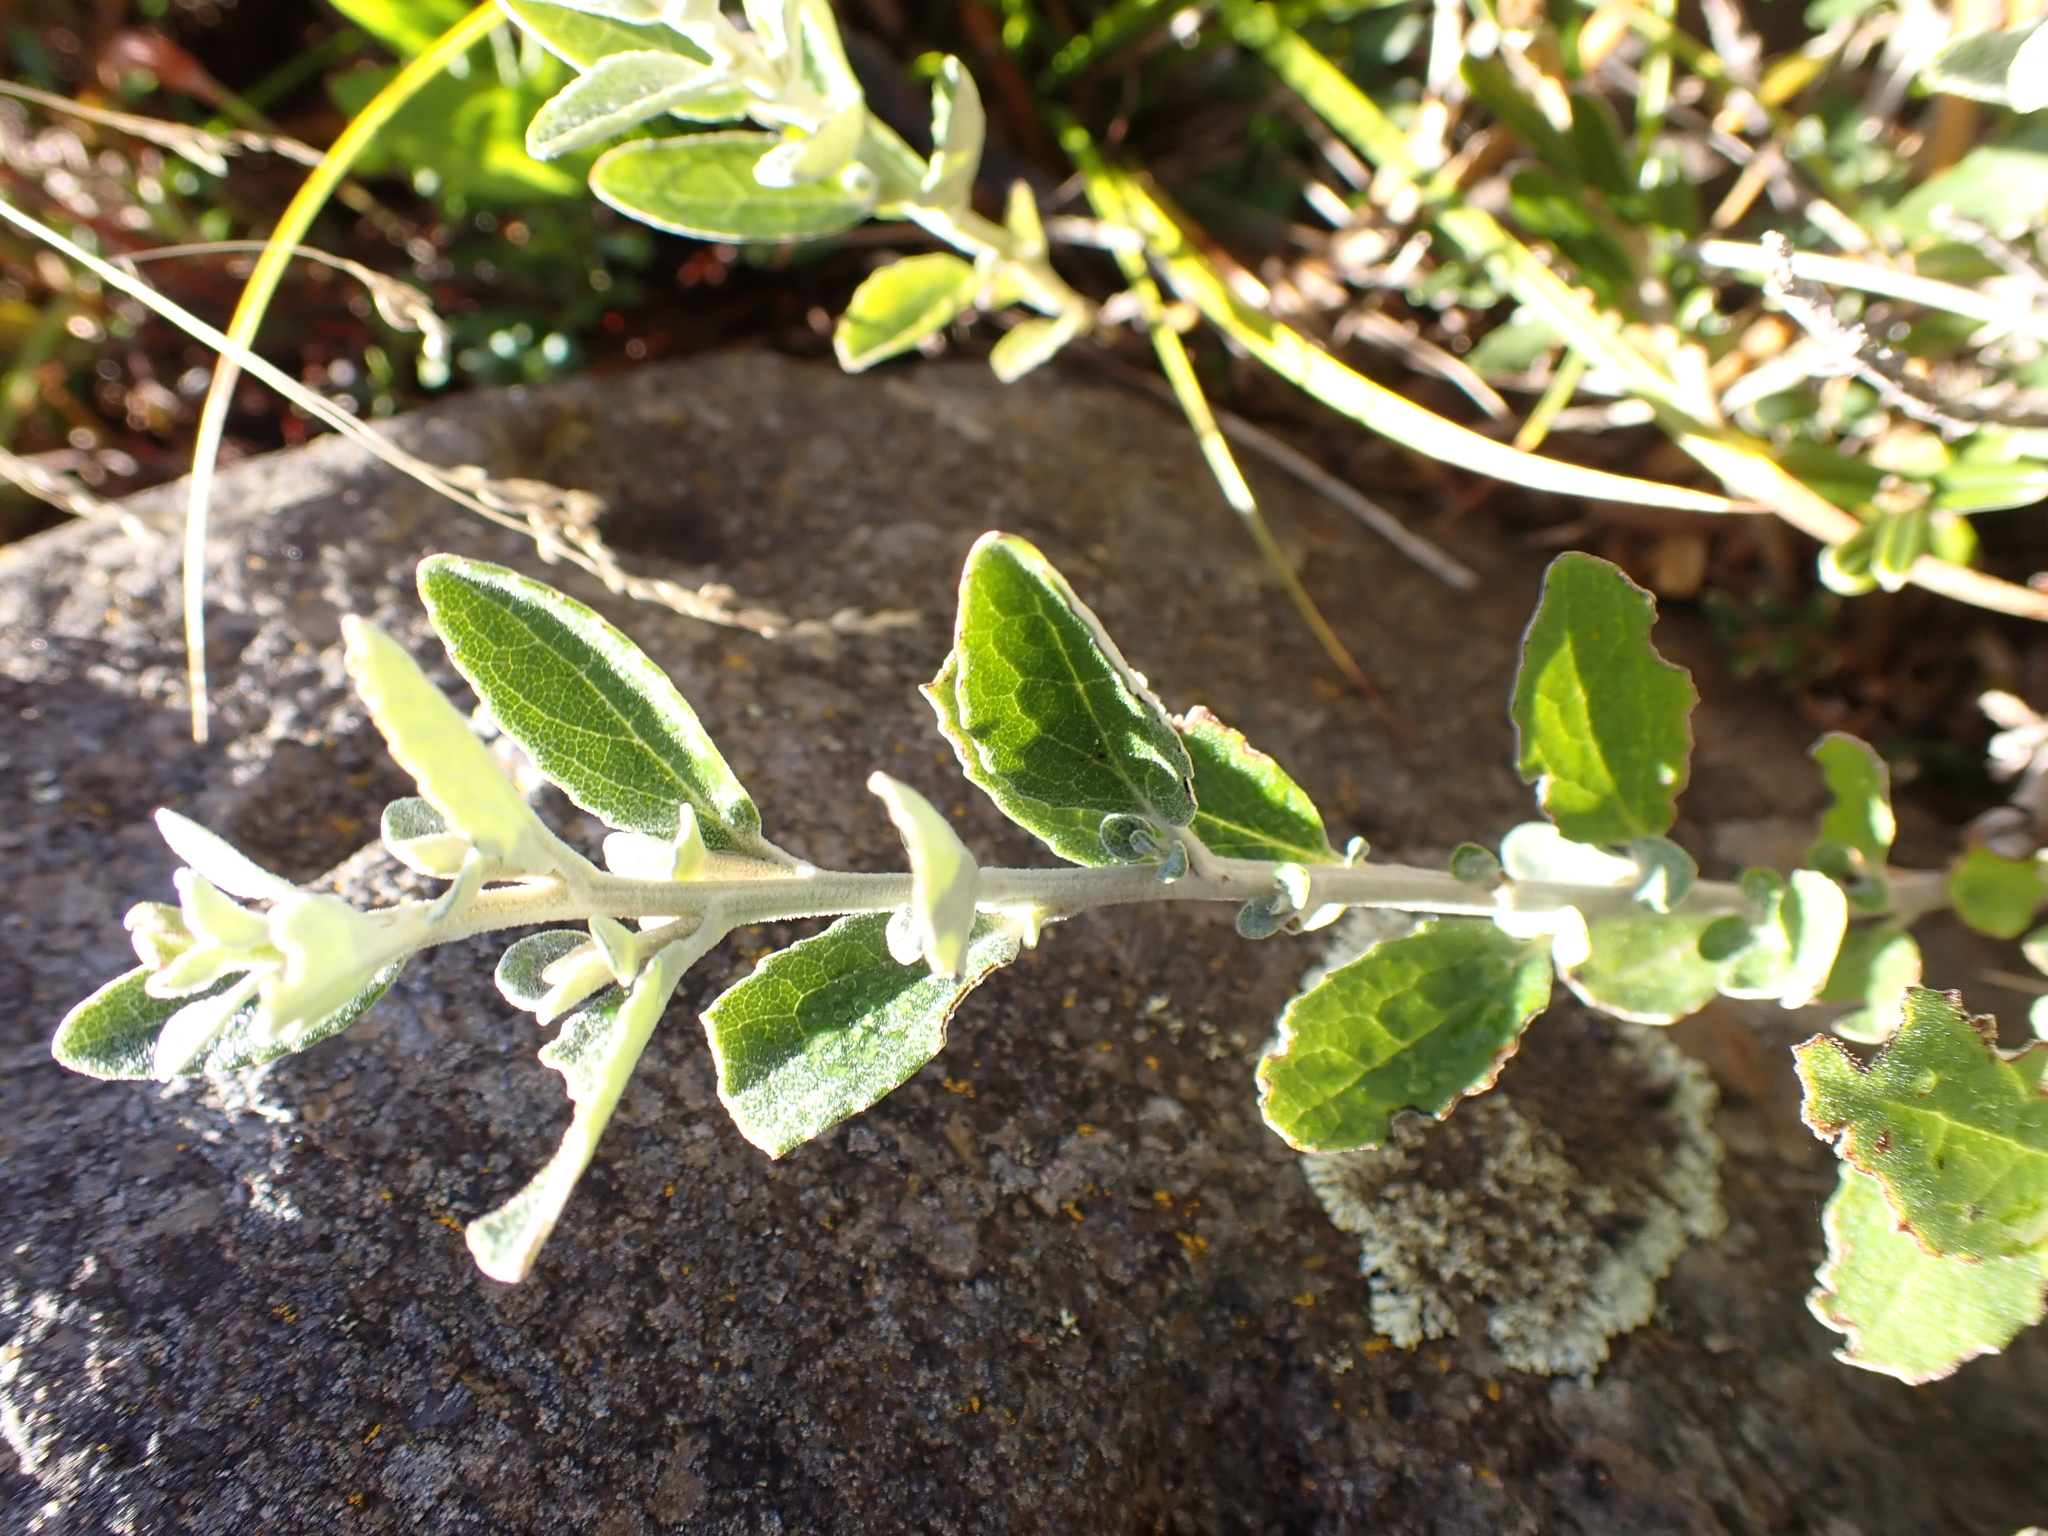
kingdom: Plantae
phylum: Tracheophyta
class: Magnoliopsida
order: Asterales
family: Asteraceae
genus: Olearia
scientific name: Olearia phlogopappa
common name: Alpine daisybush
